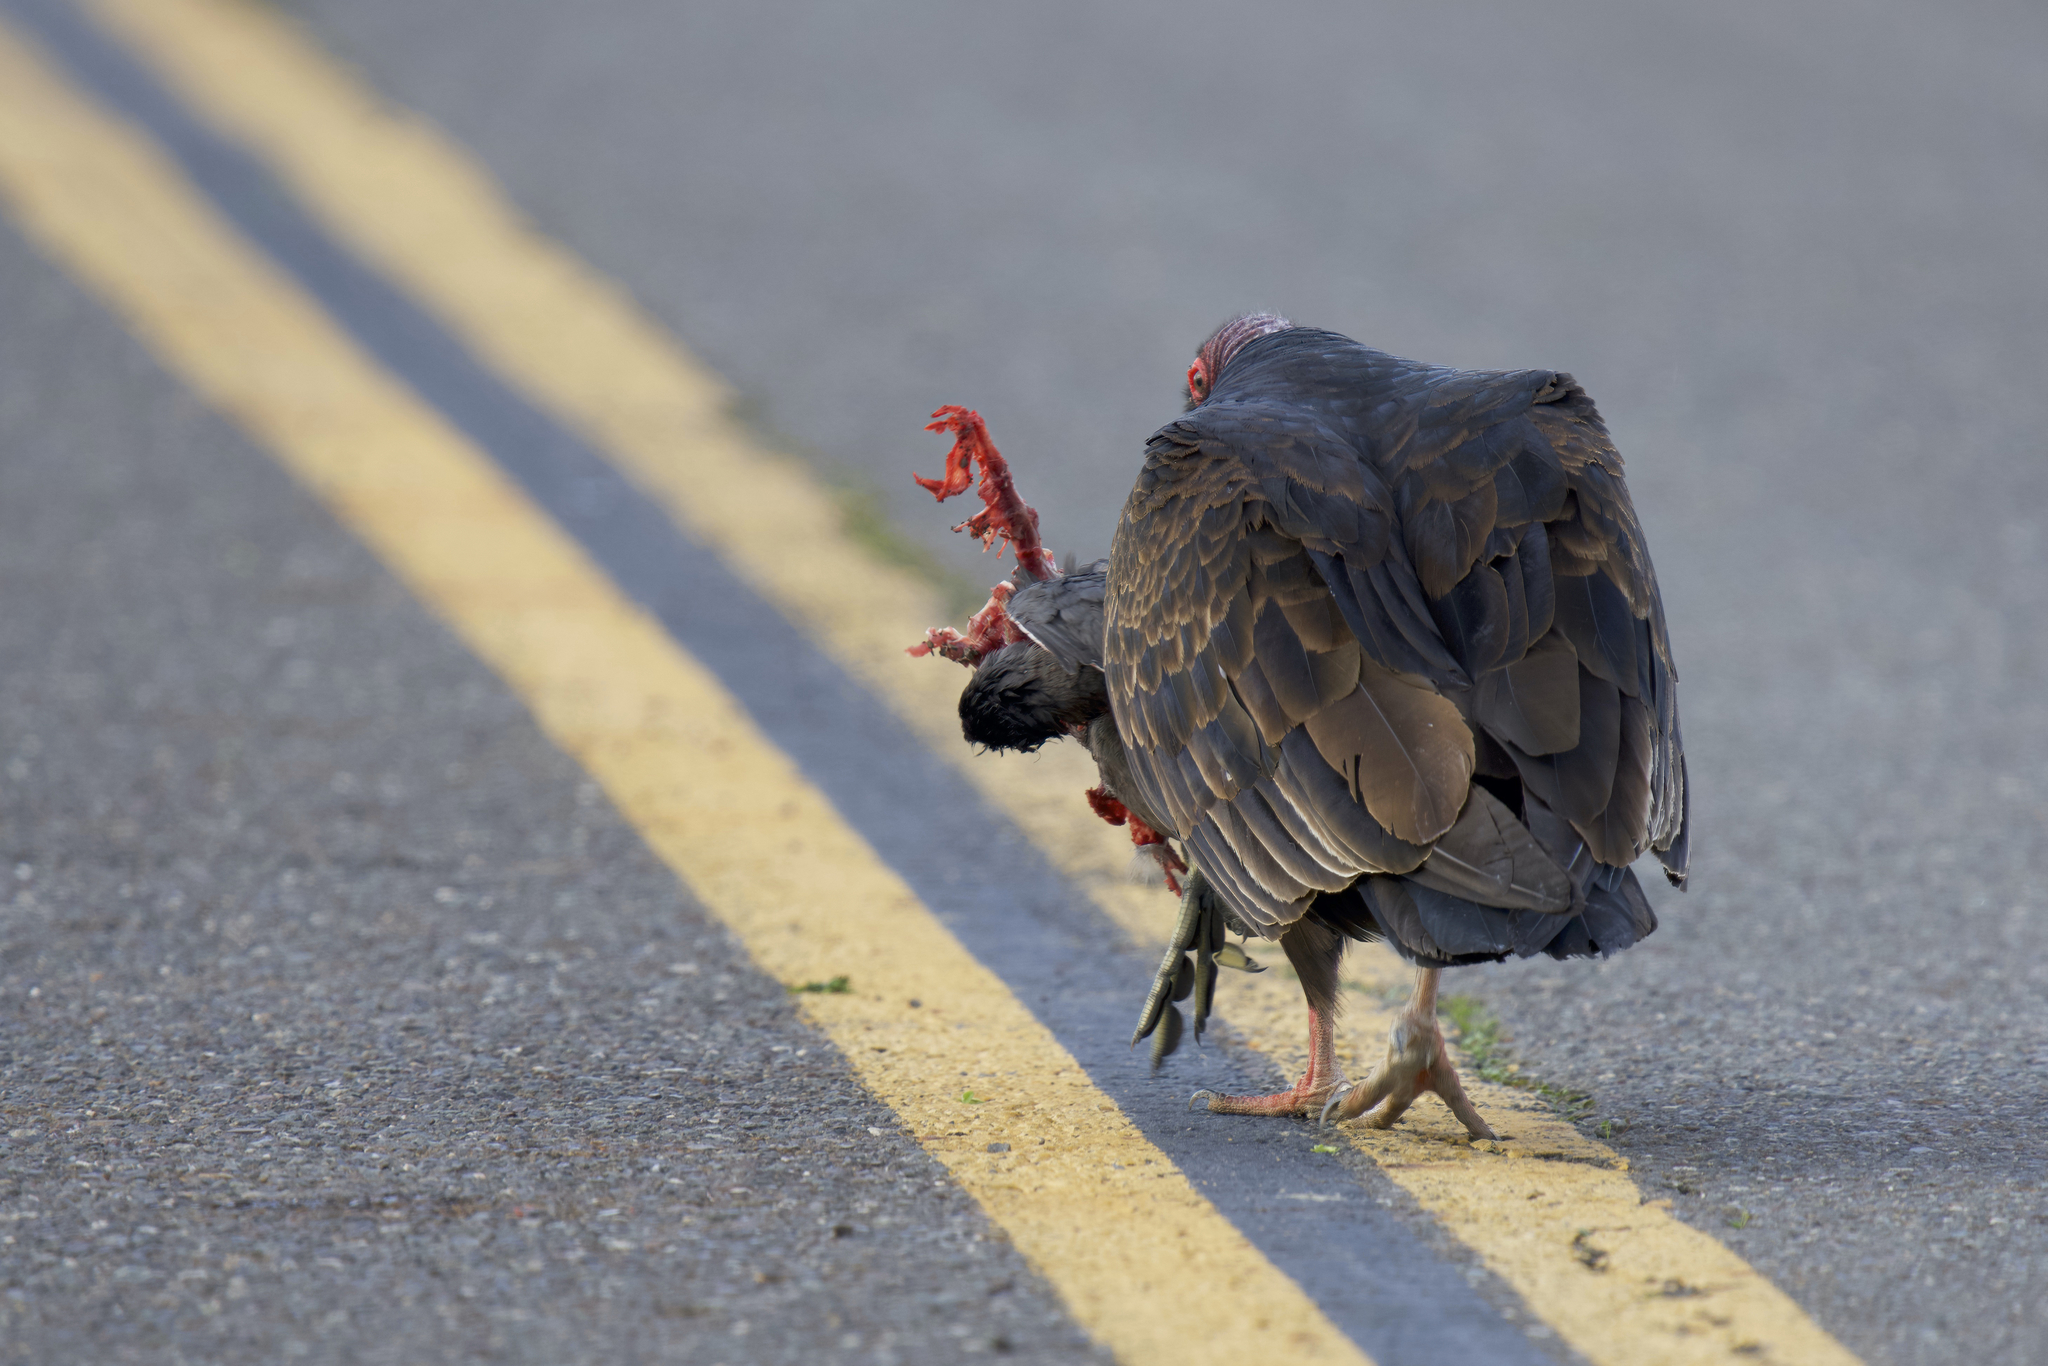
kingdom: Animalia
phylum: Chordata
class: Aves
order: Accipitriformes
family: Cathartidae
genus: Cathartes
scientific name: Cathartes aura
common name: Turkey vulture
